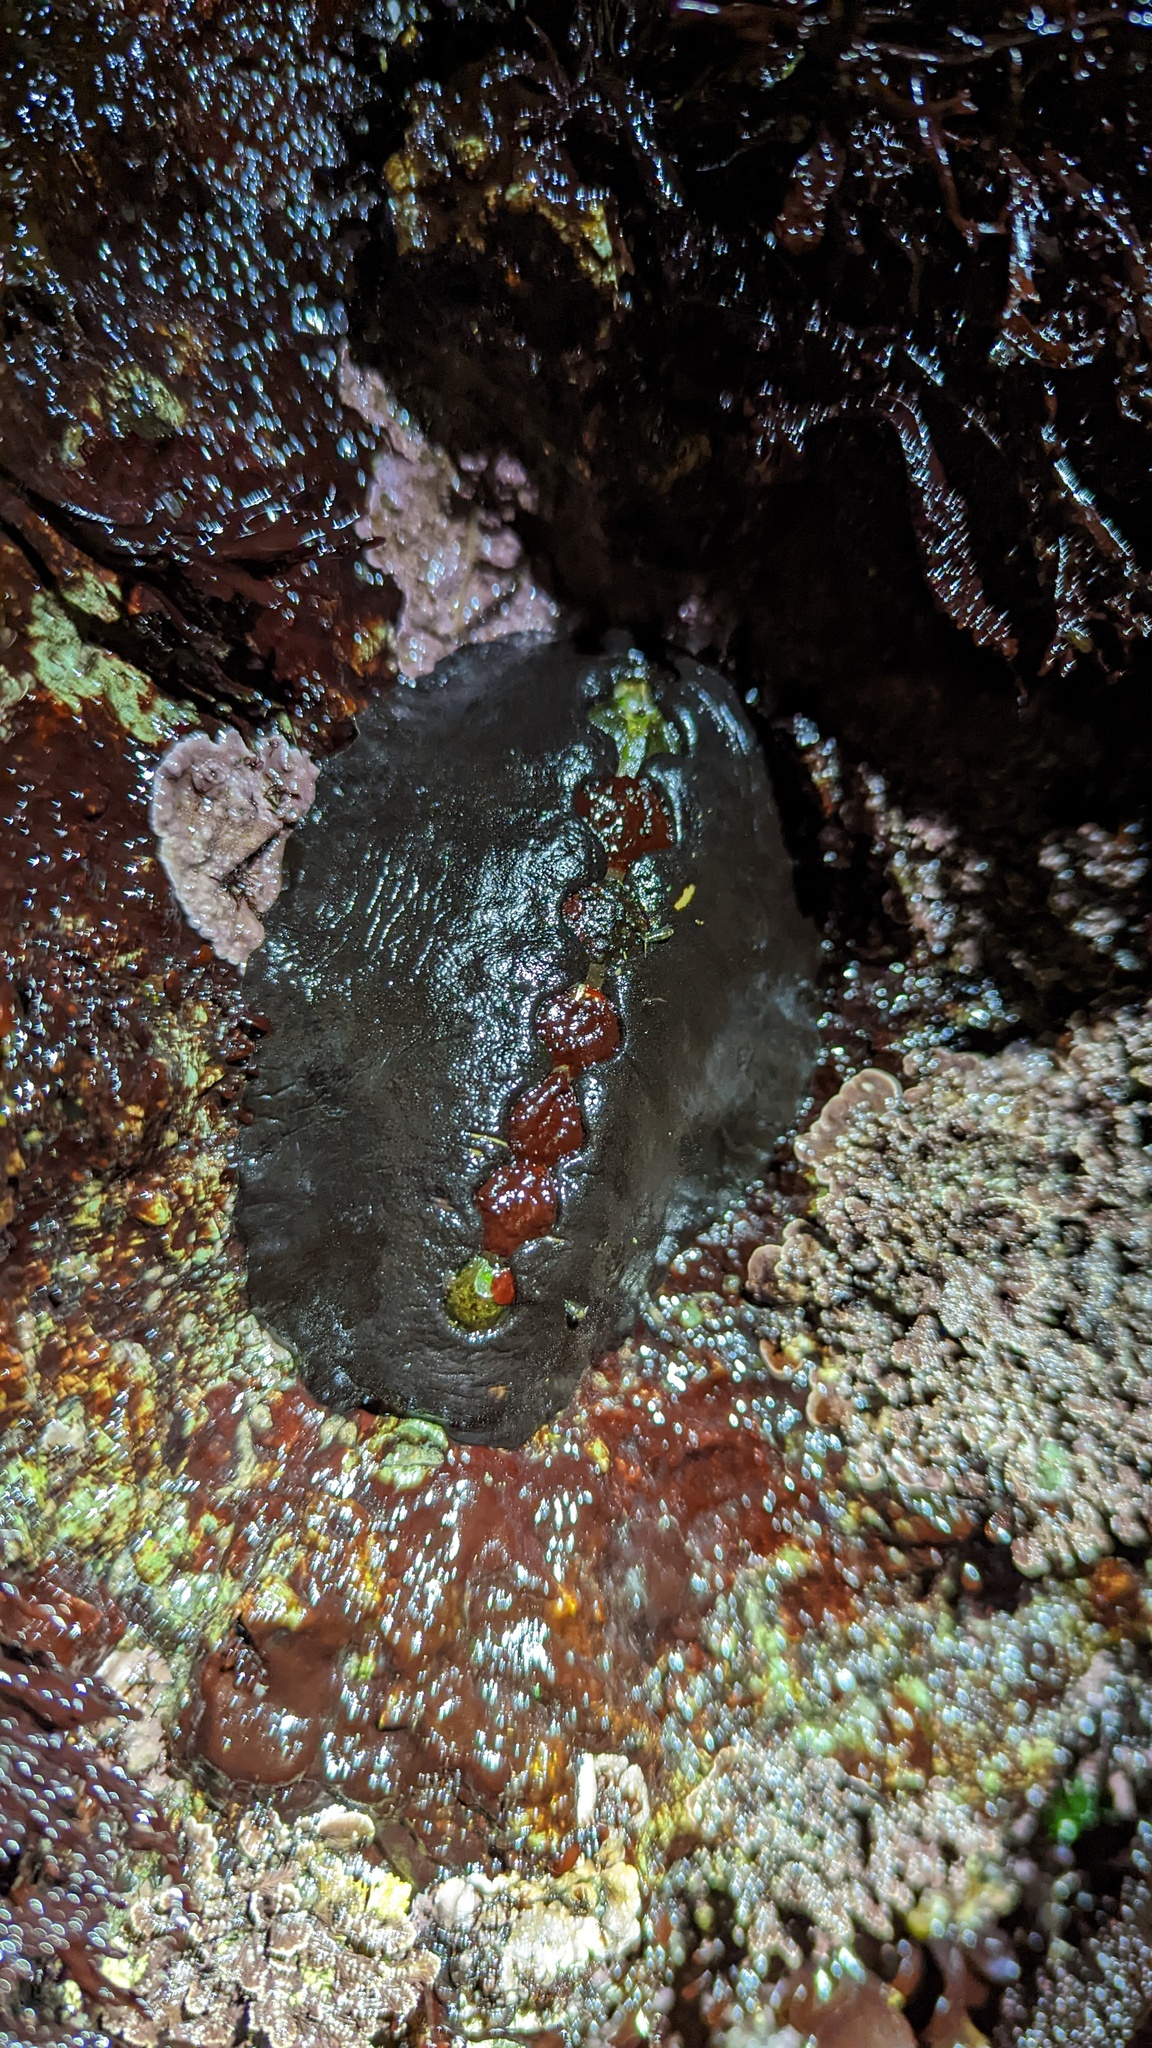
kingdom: Animalia
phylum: Mollusca
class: Polyplacophora
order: Chitonida
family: Mopaliidae
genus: Katharina
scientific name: Katharina tunicata
